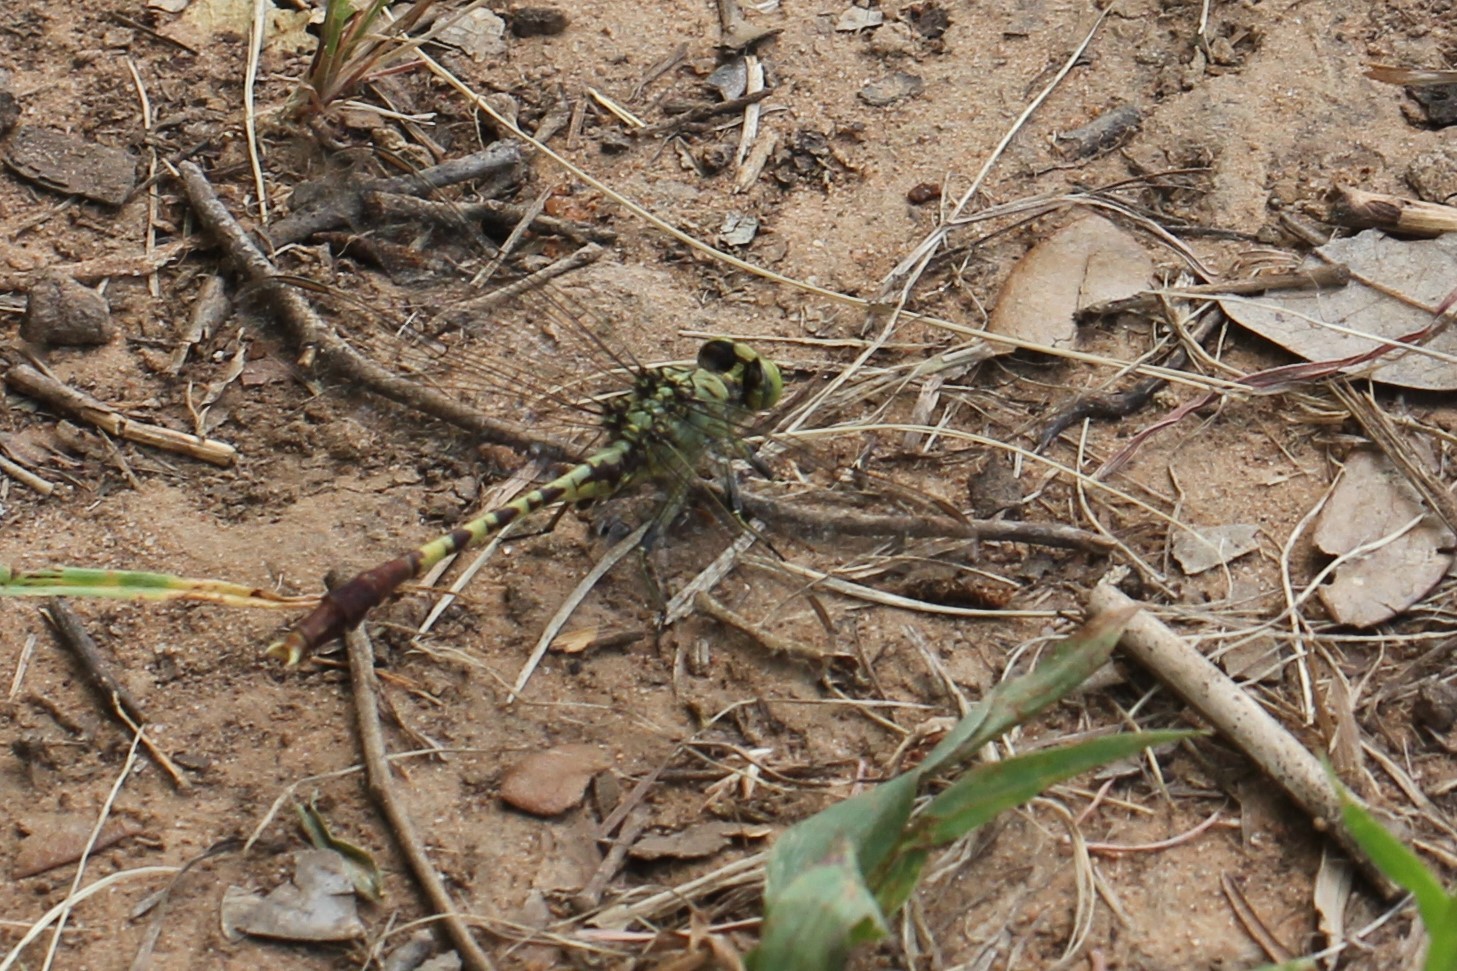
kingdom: Animalia
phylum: Arthropoda
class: Insecta
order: Odonata
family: Gomphidae
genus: Arigomphus
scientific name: Arigomphus submedianus
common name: Jade clubtail
